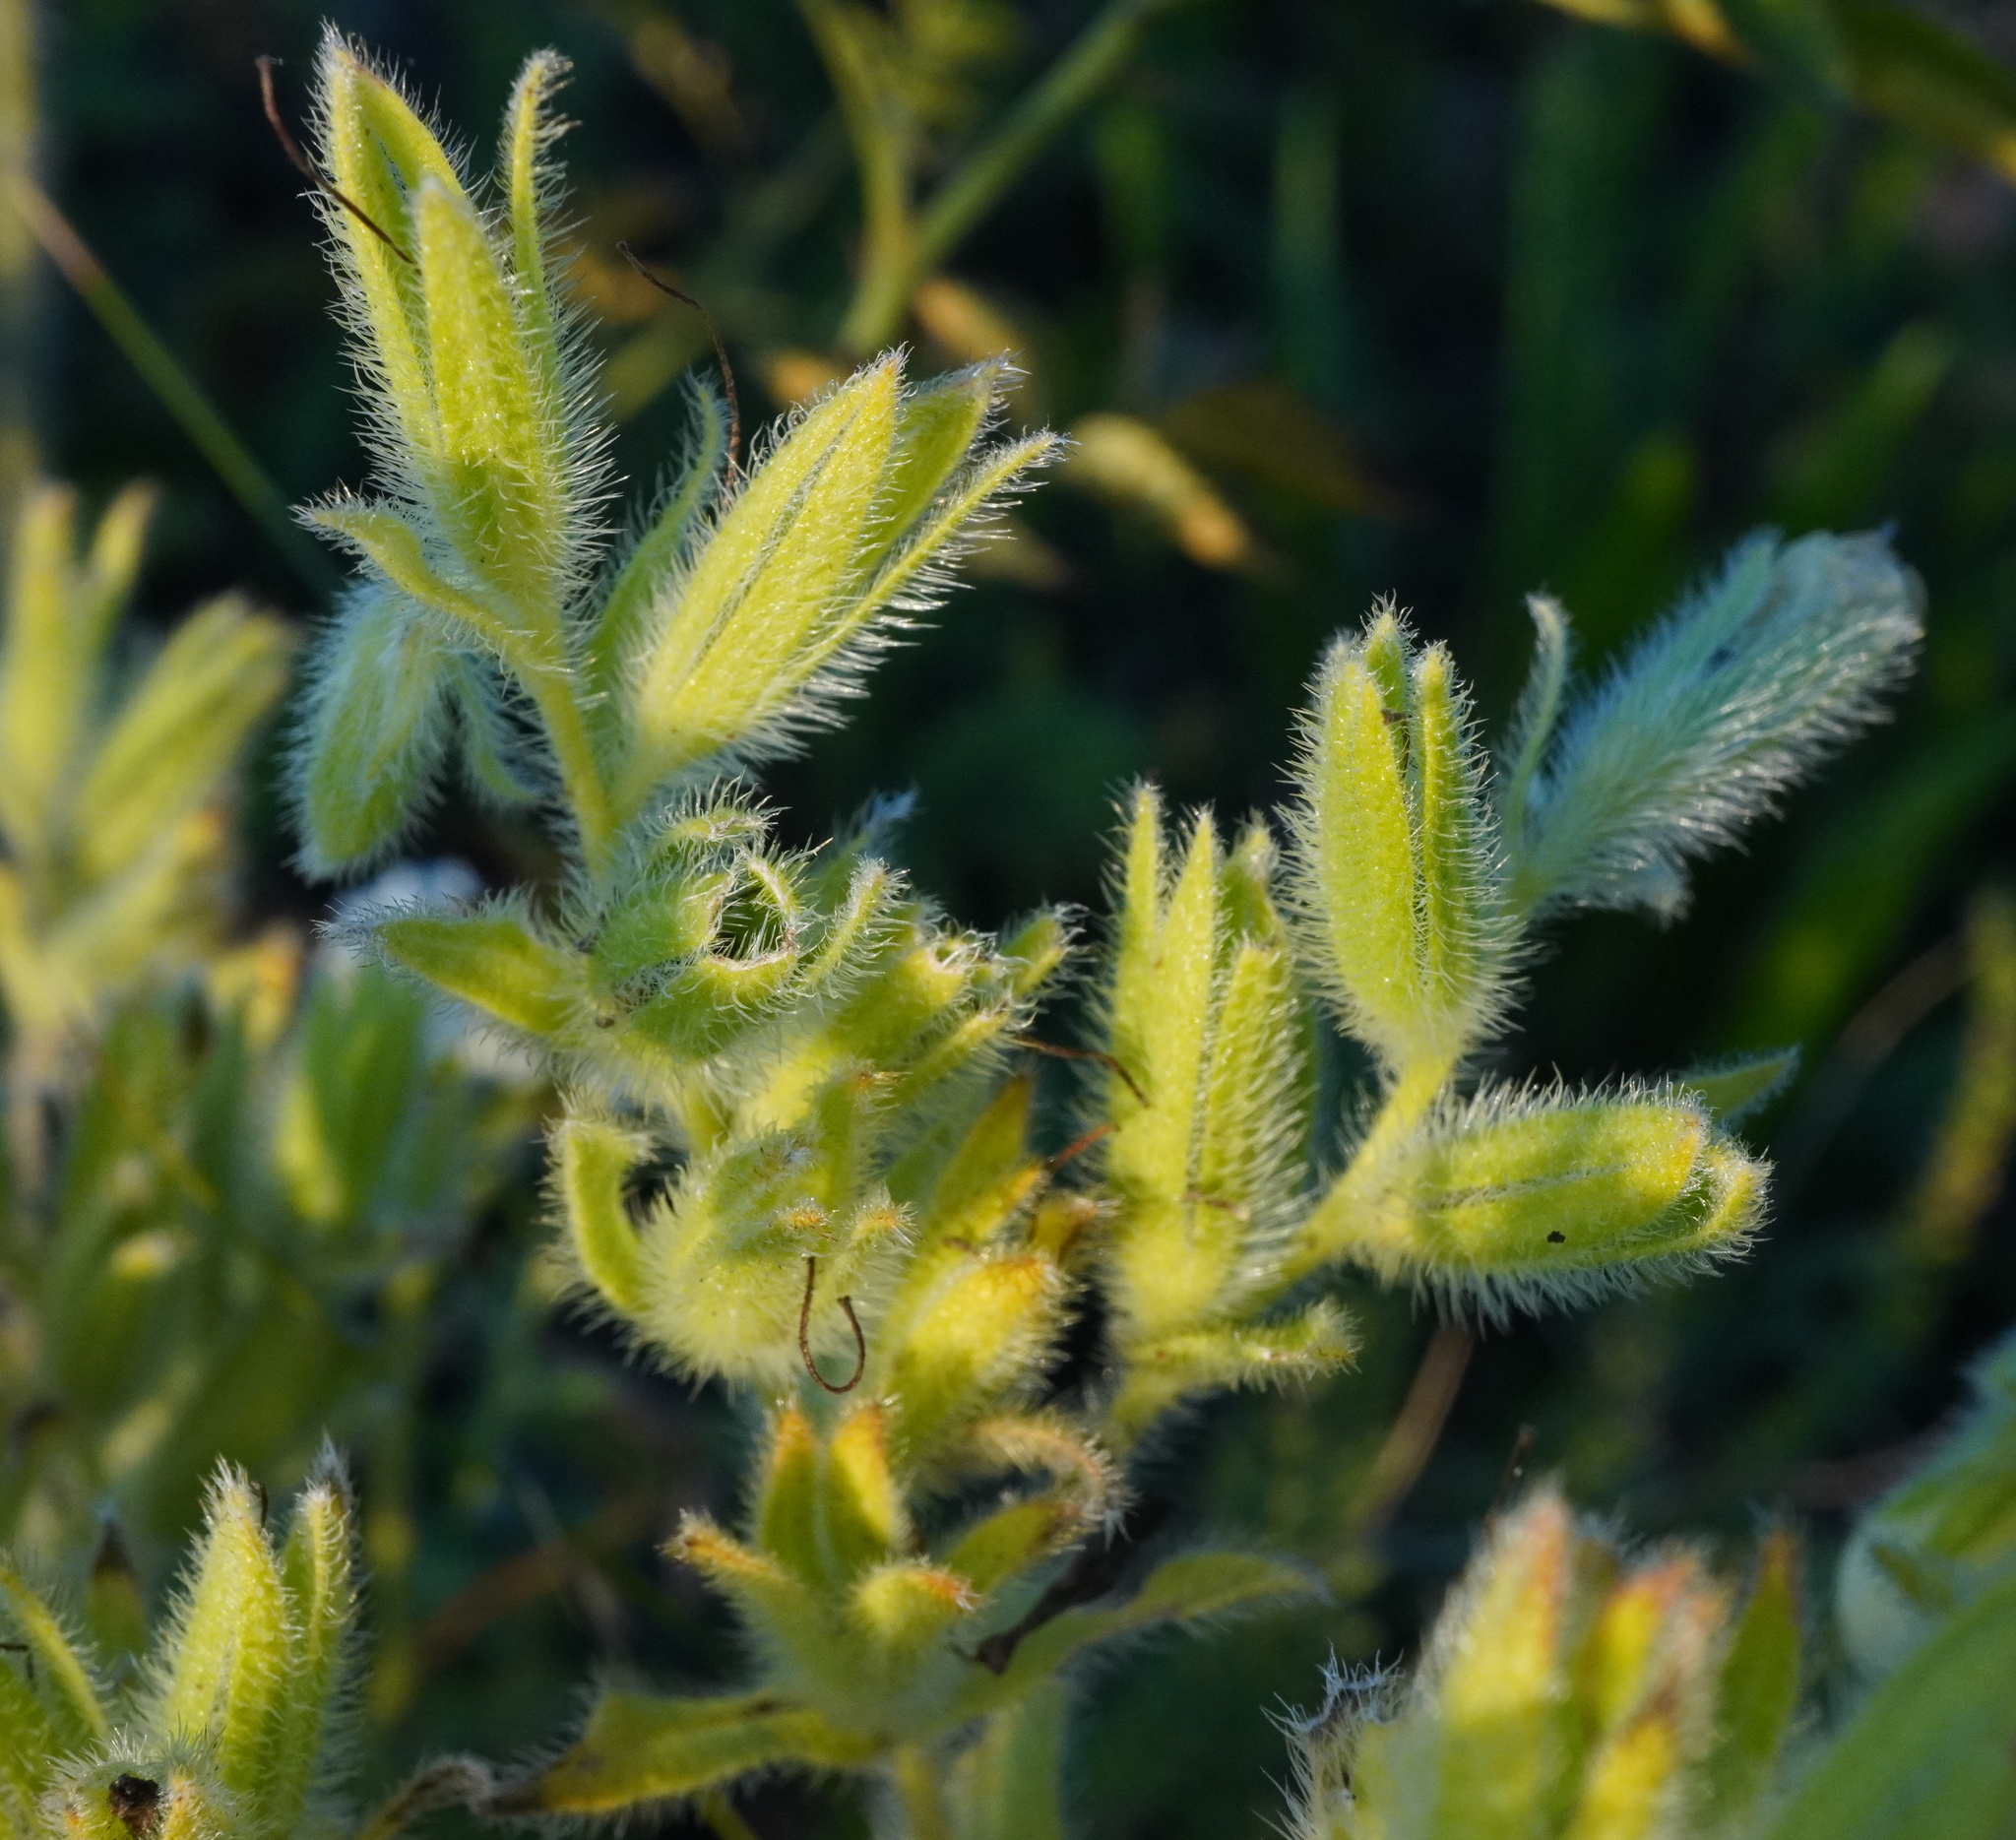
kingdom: Plantae
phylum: Tracheophyta
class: Magnoliopsida
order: Boraginales
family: Boraginaceae
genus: Onosma
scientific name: Onosma arenaria
